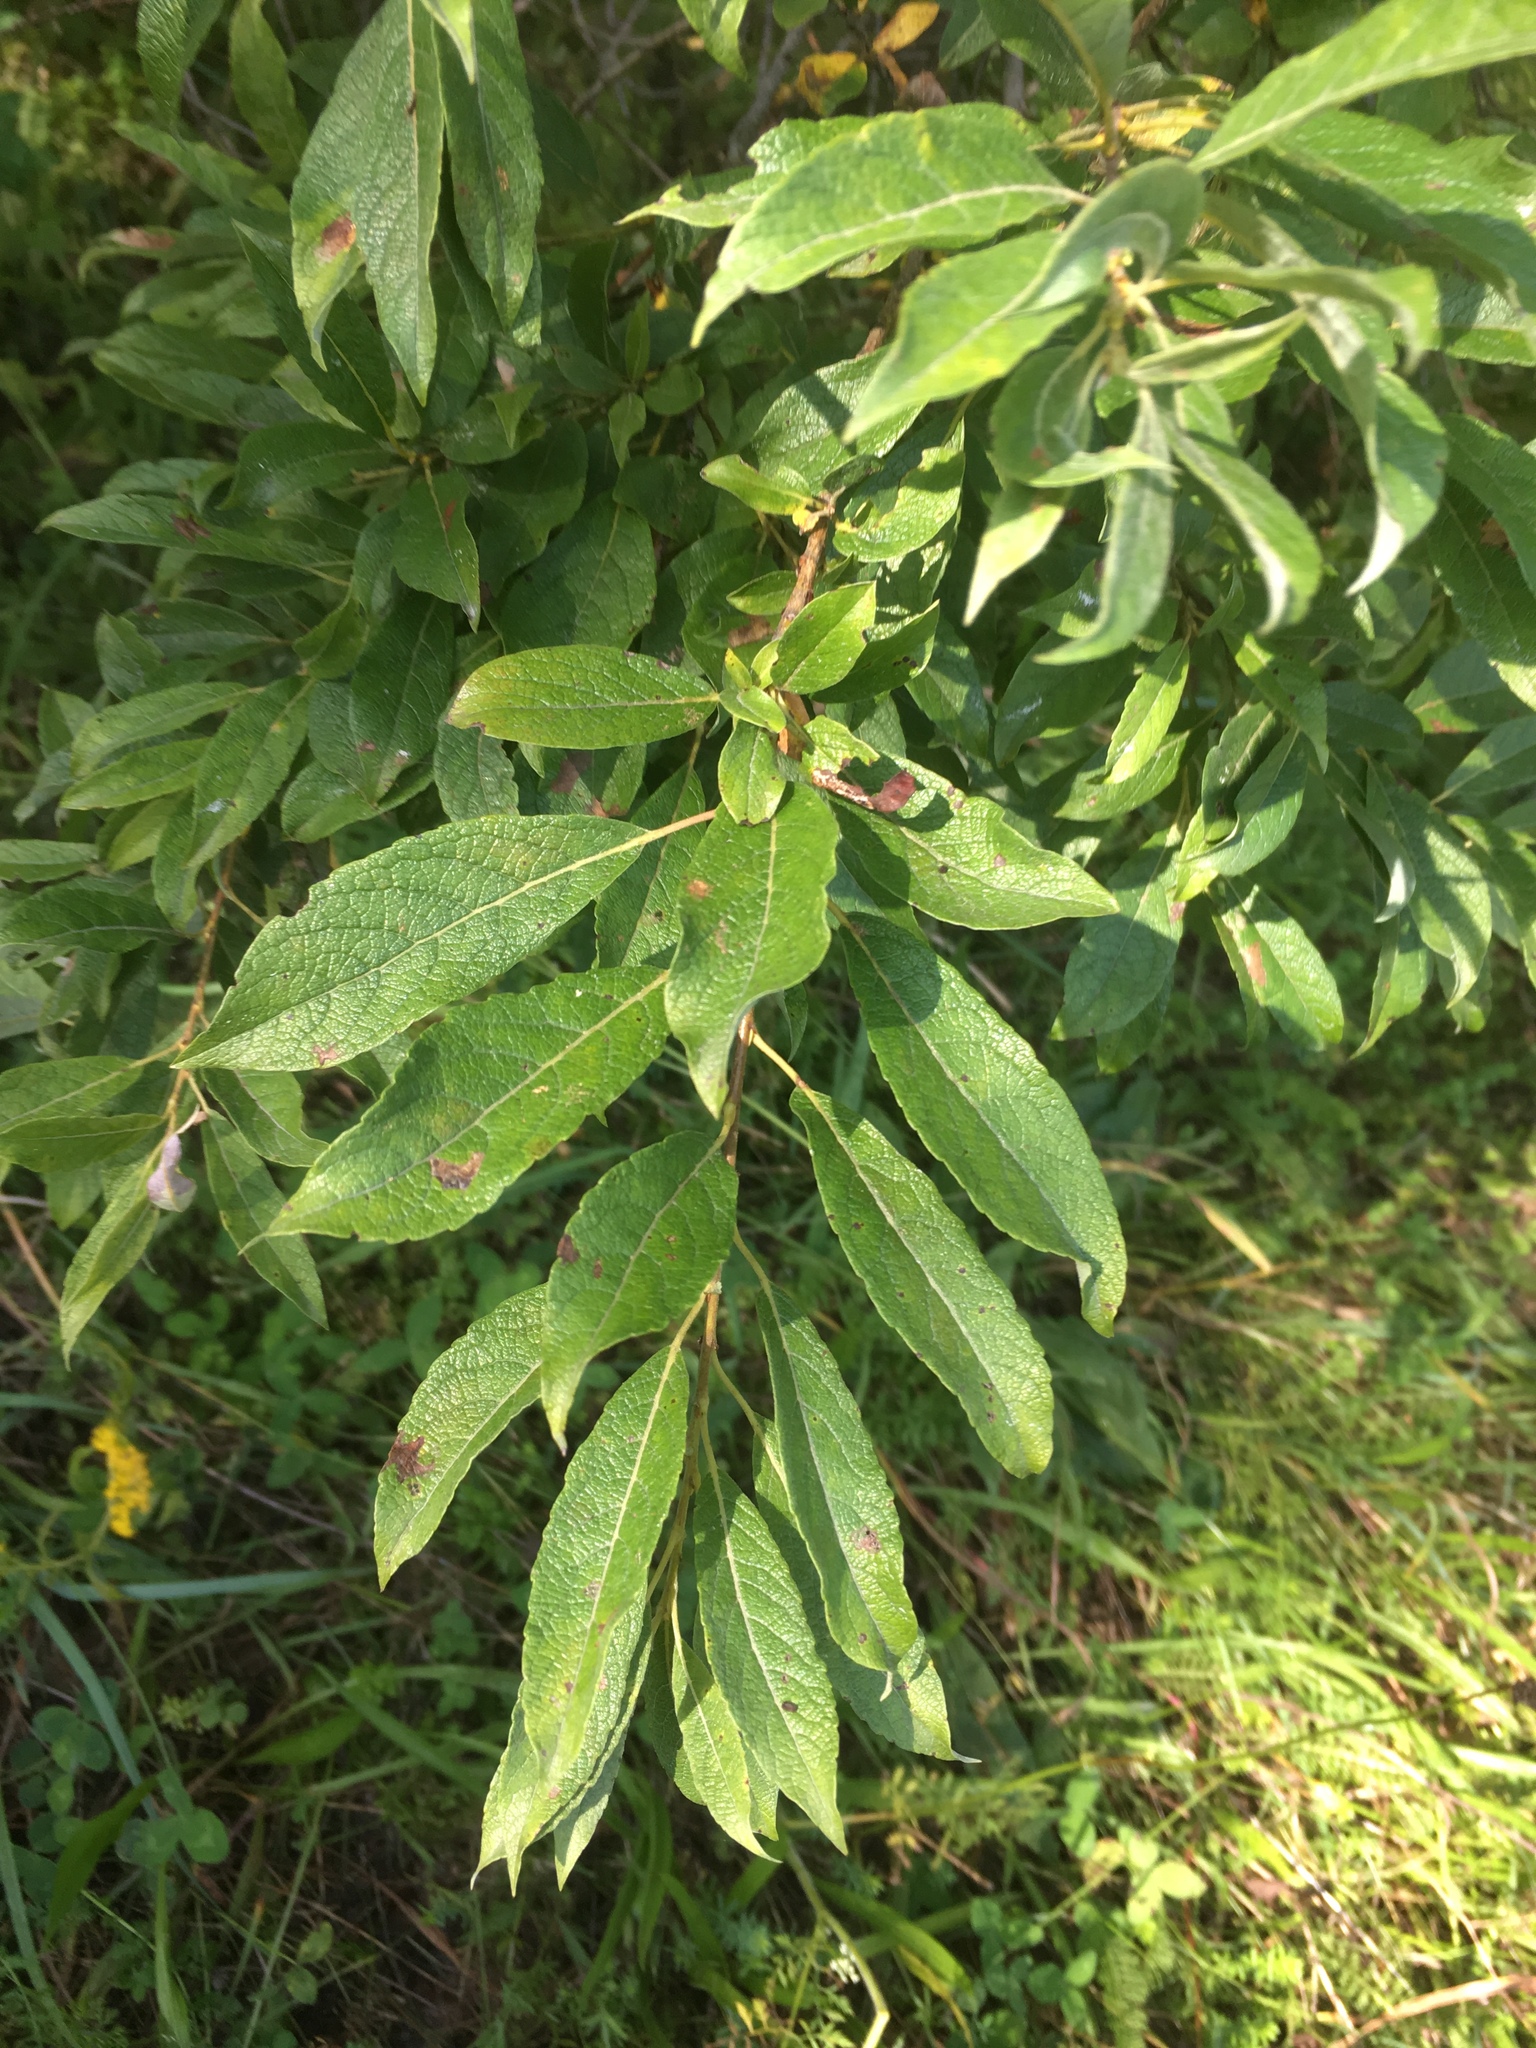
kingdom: Plantae
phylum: Tracheophyta
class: Magnoliopsida
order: Malpighiales
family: Salicaceae
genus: Salix
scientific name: Salix bebbiana
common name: Bebb's willow
